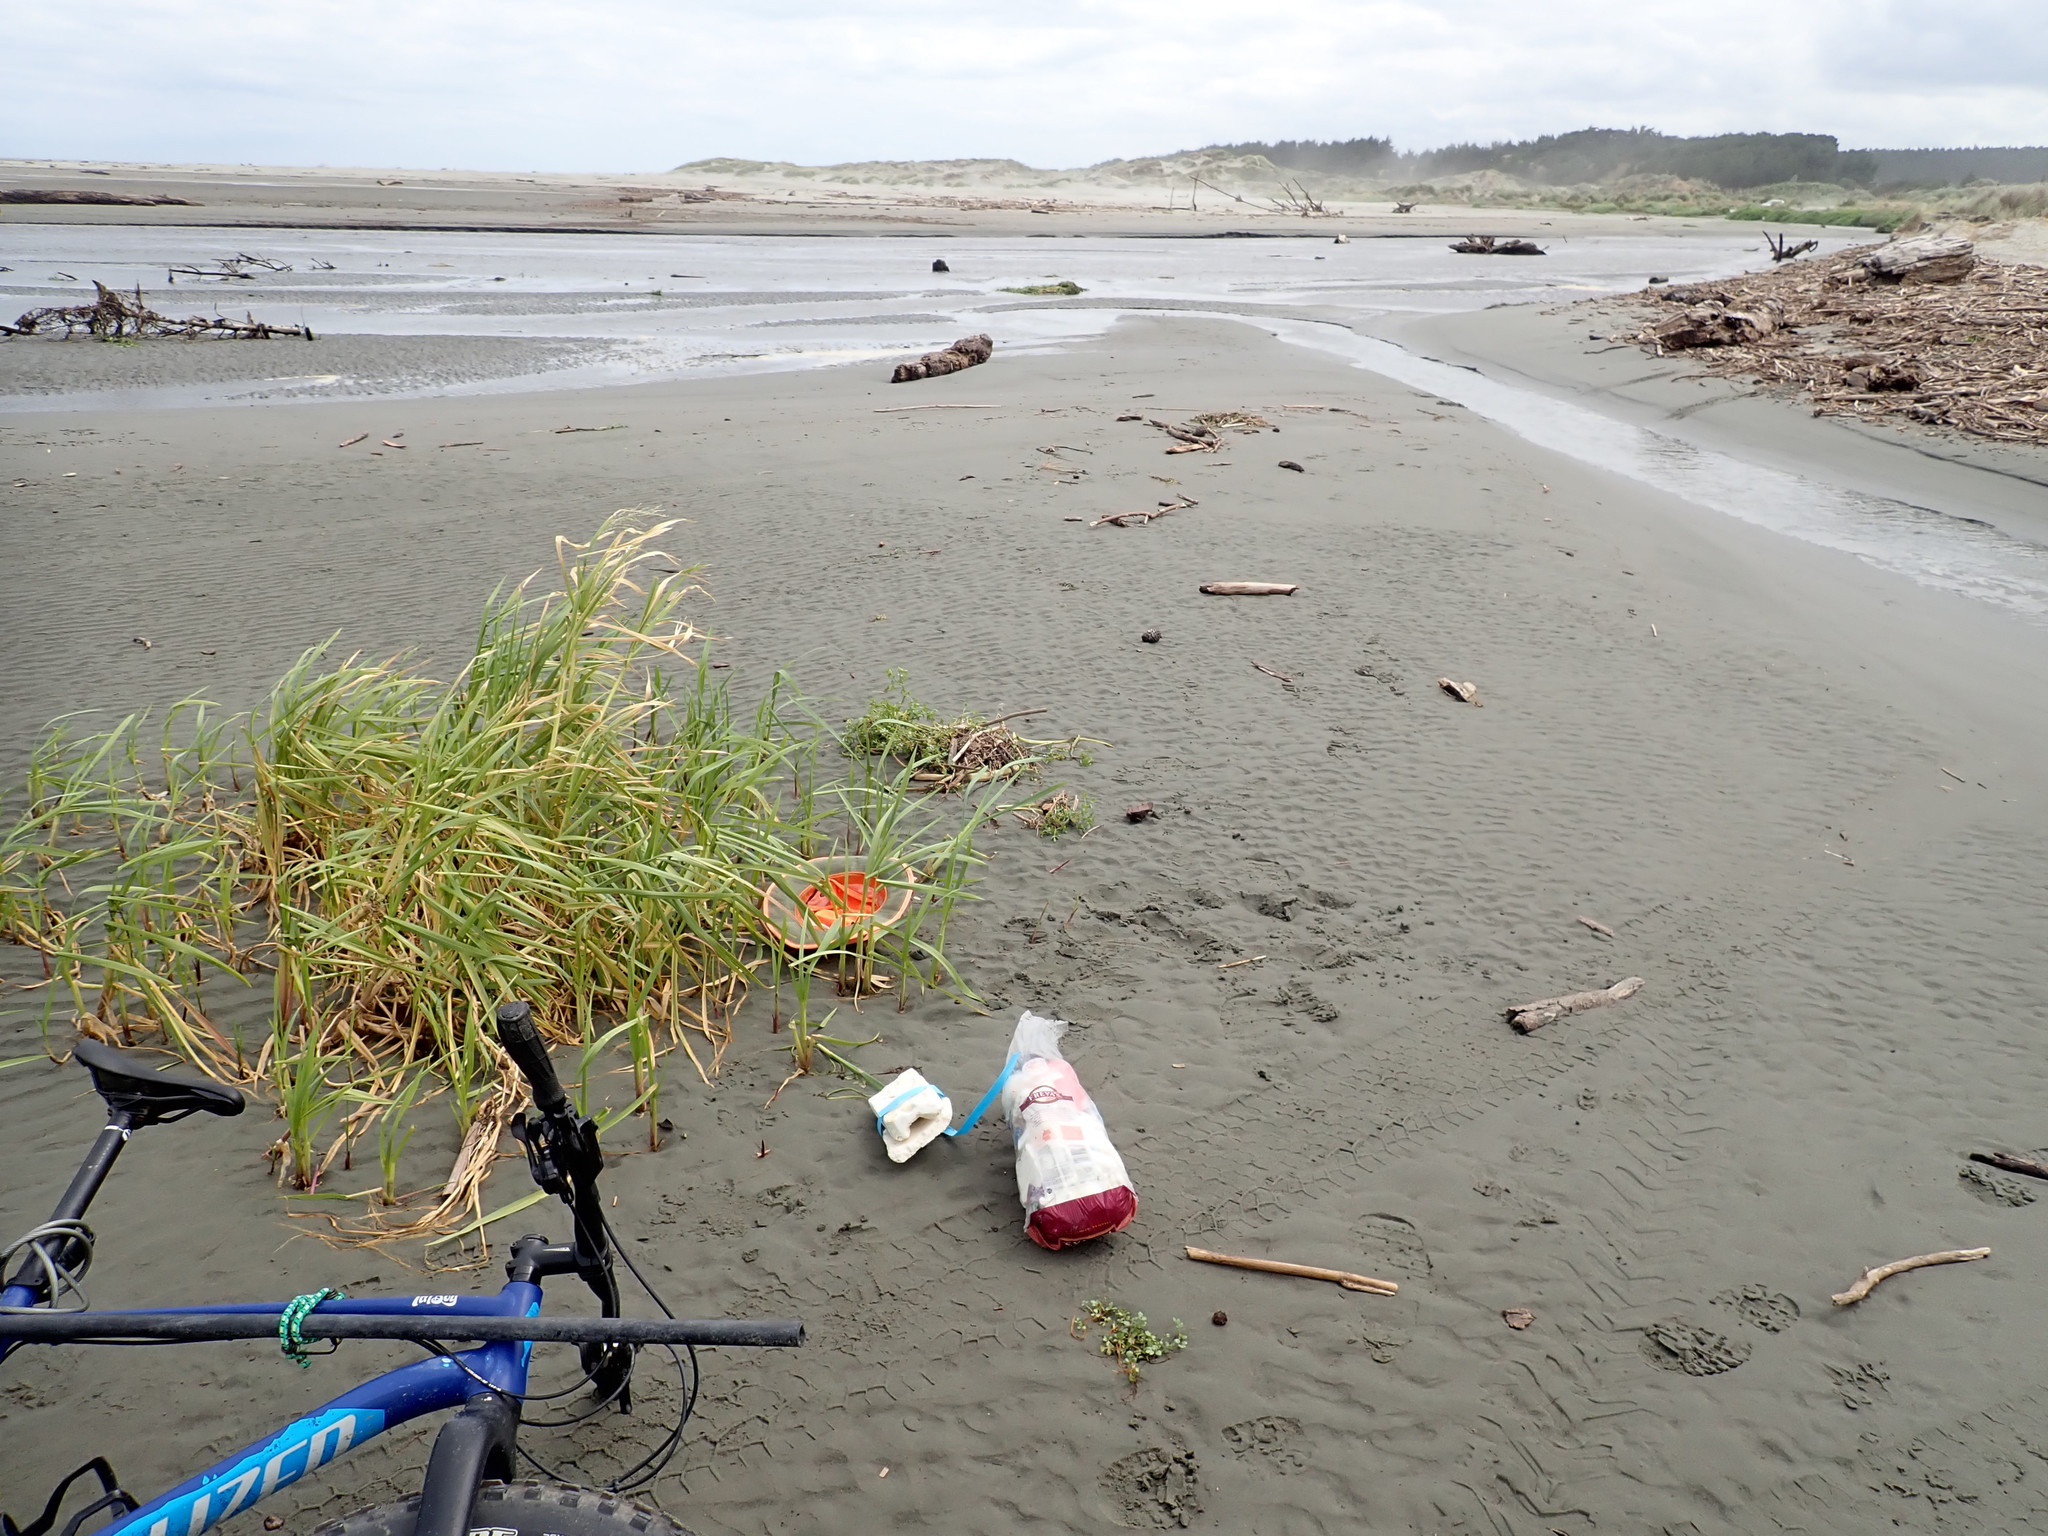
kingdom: Animalia
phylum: Arthropoda
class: Insecta
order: Odonata
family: Coenagrionidae
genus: Xanthocnemis
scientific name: Xanthocnemis zealandica
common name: Common redcoat damselfly
